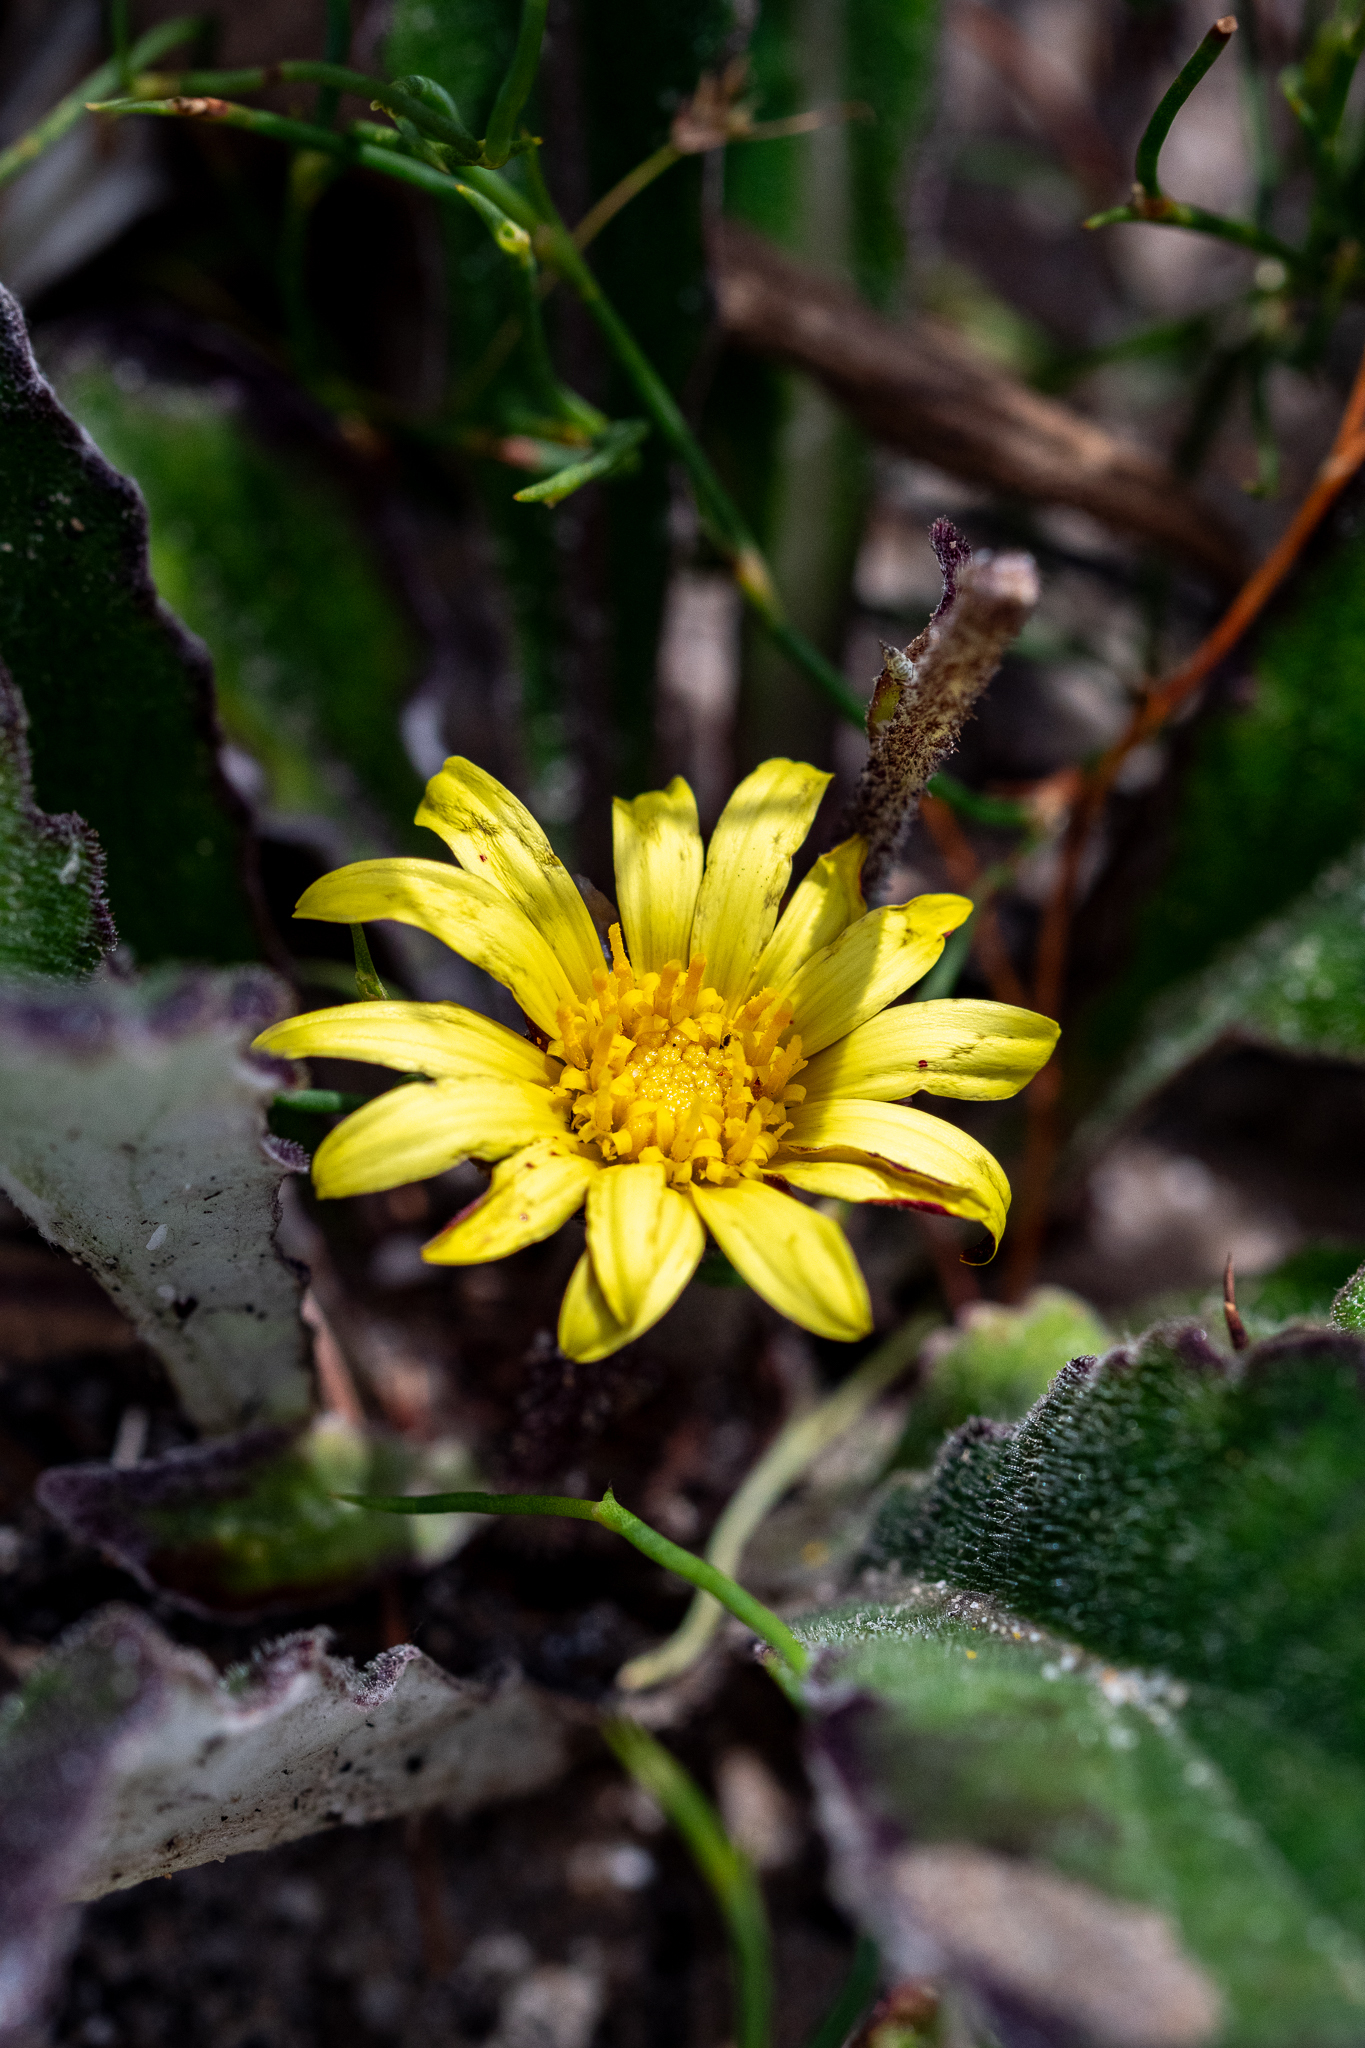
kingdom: Plantae
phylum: Tracheophyta
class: Magnoliopsida
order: Asterales
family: Asteraceae
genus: Haplocarpha
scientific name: Haplocarpha lanata
